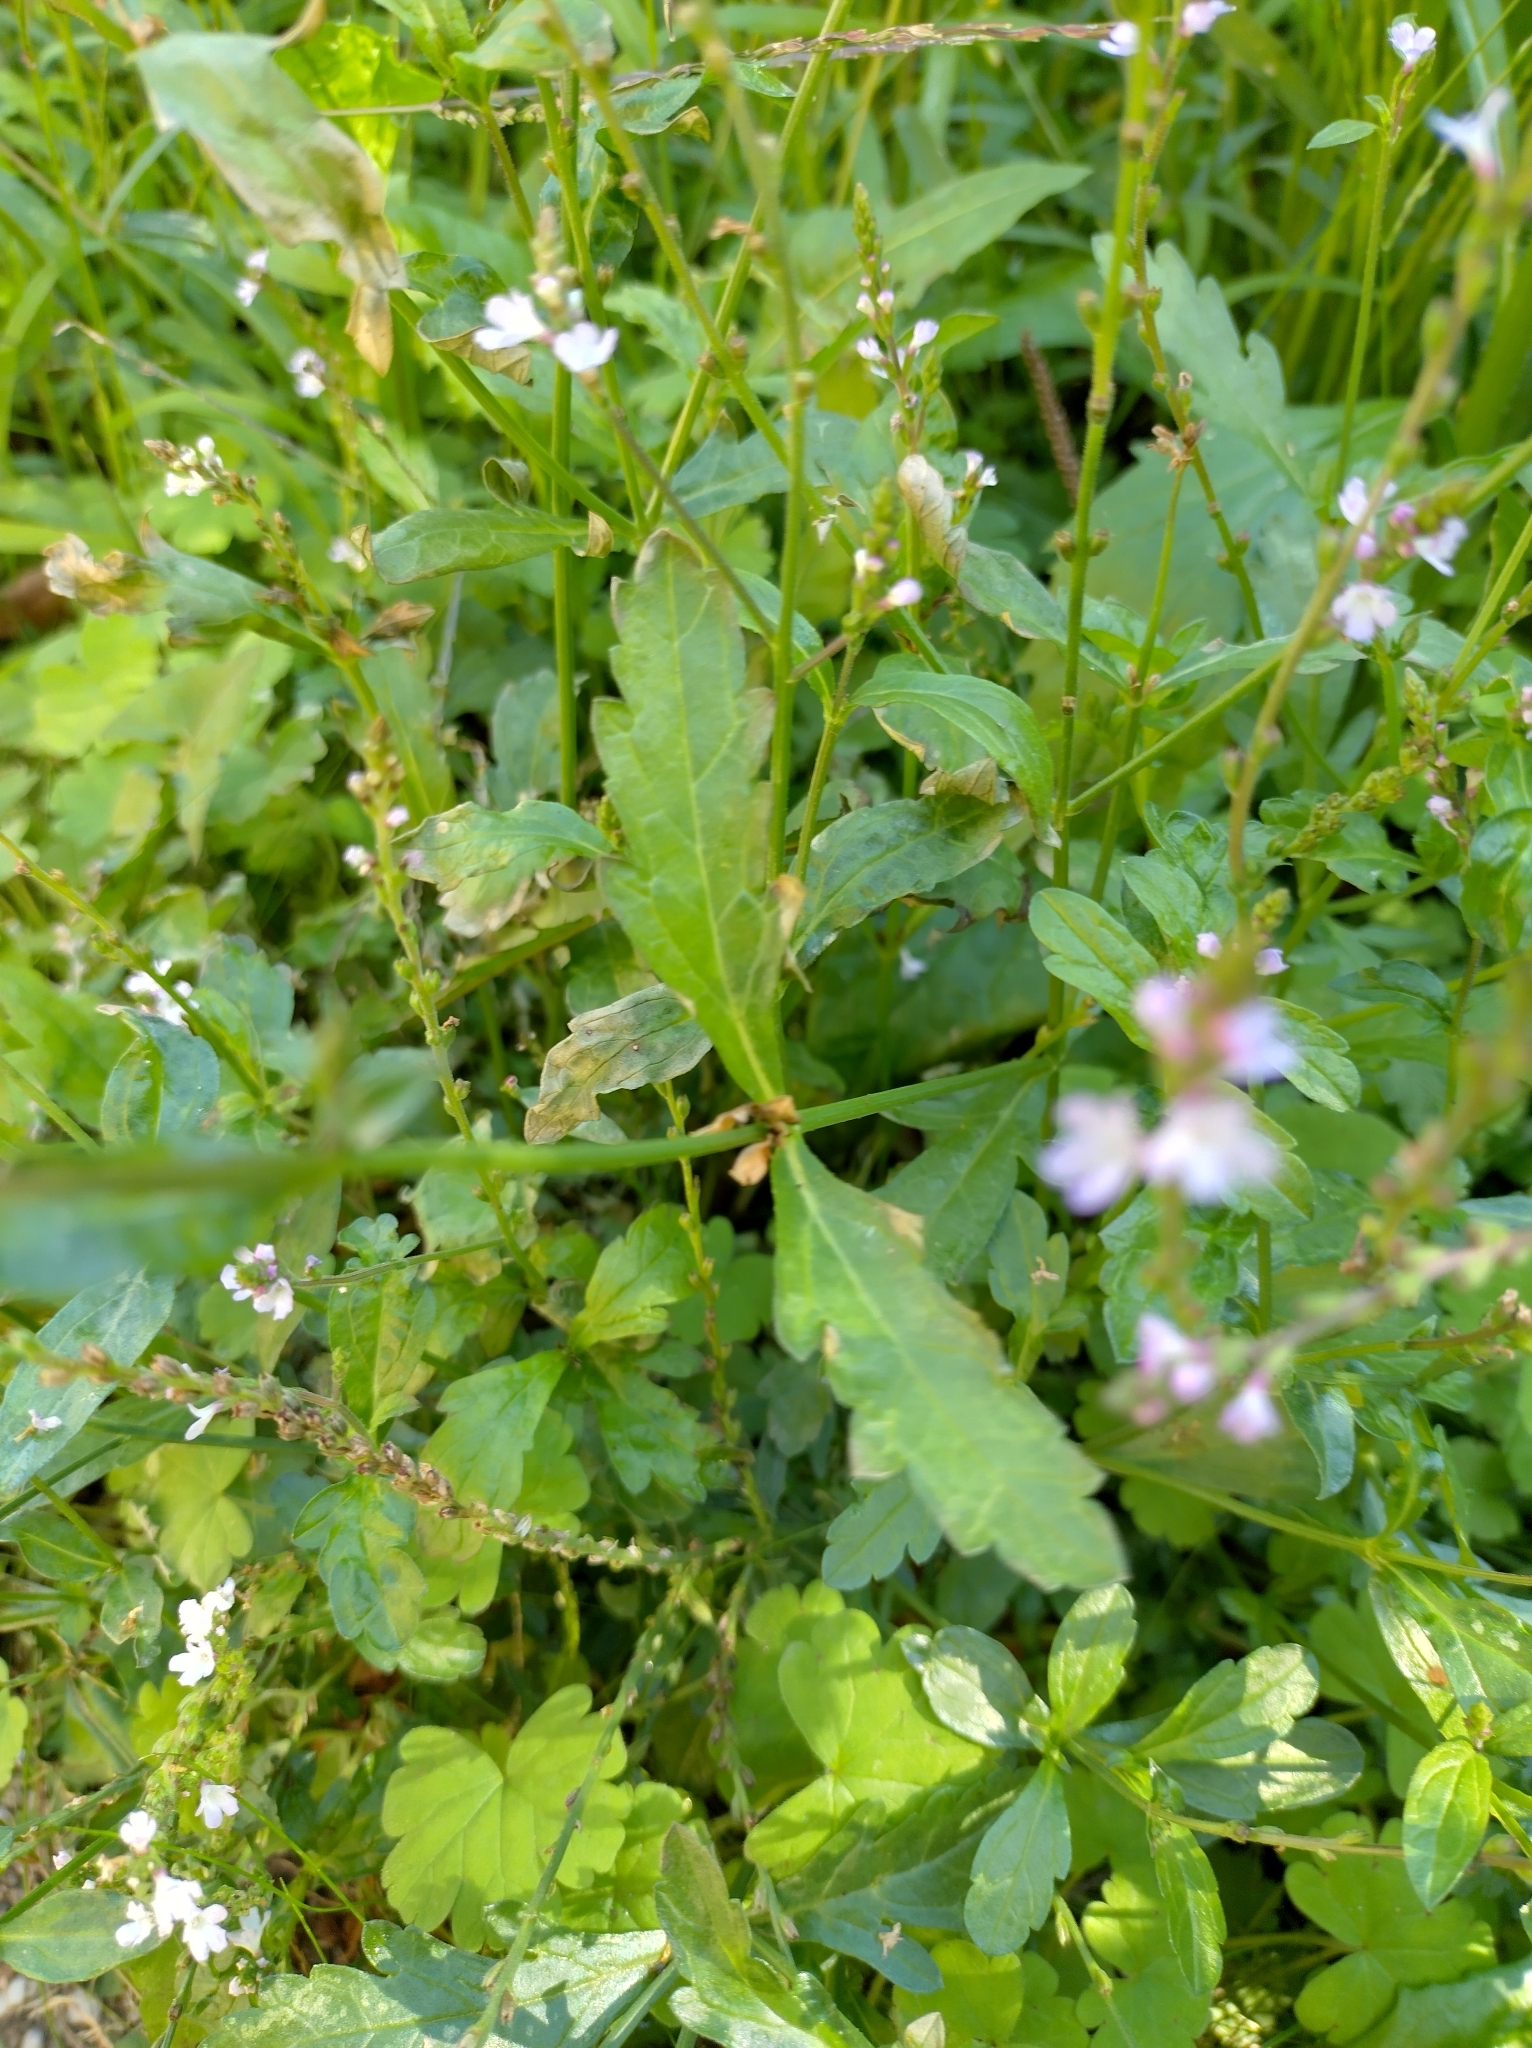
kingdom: Plantae
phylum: Tracheophyta
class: Magnoliopsida
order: Lamiales
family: Verbenaceae
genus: Verbena
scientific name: Verbena officinalis
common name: Vervain
